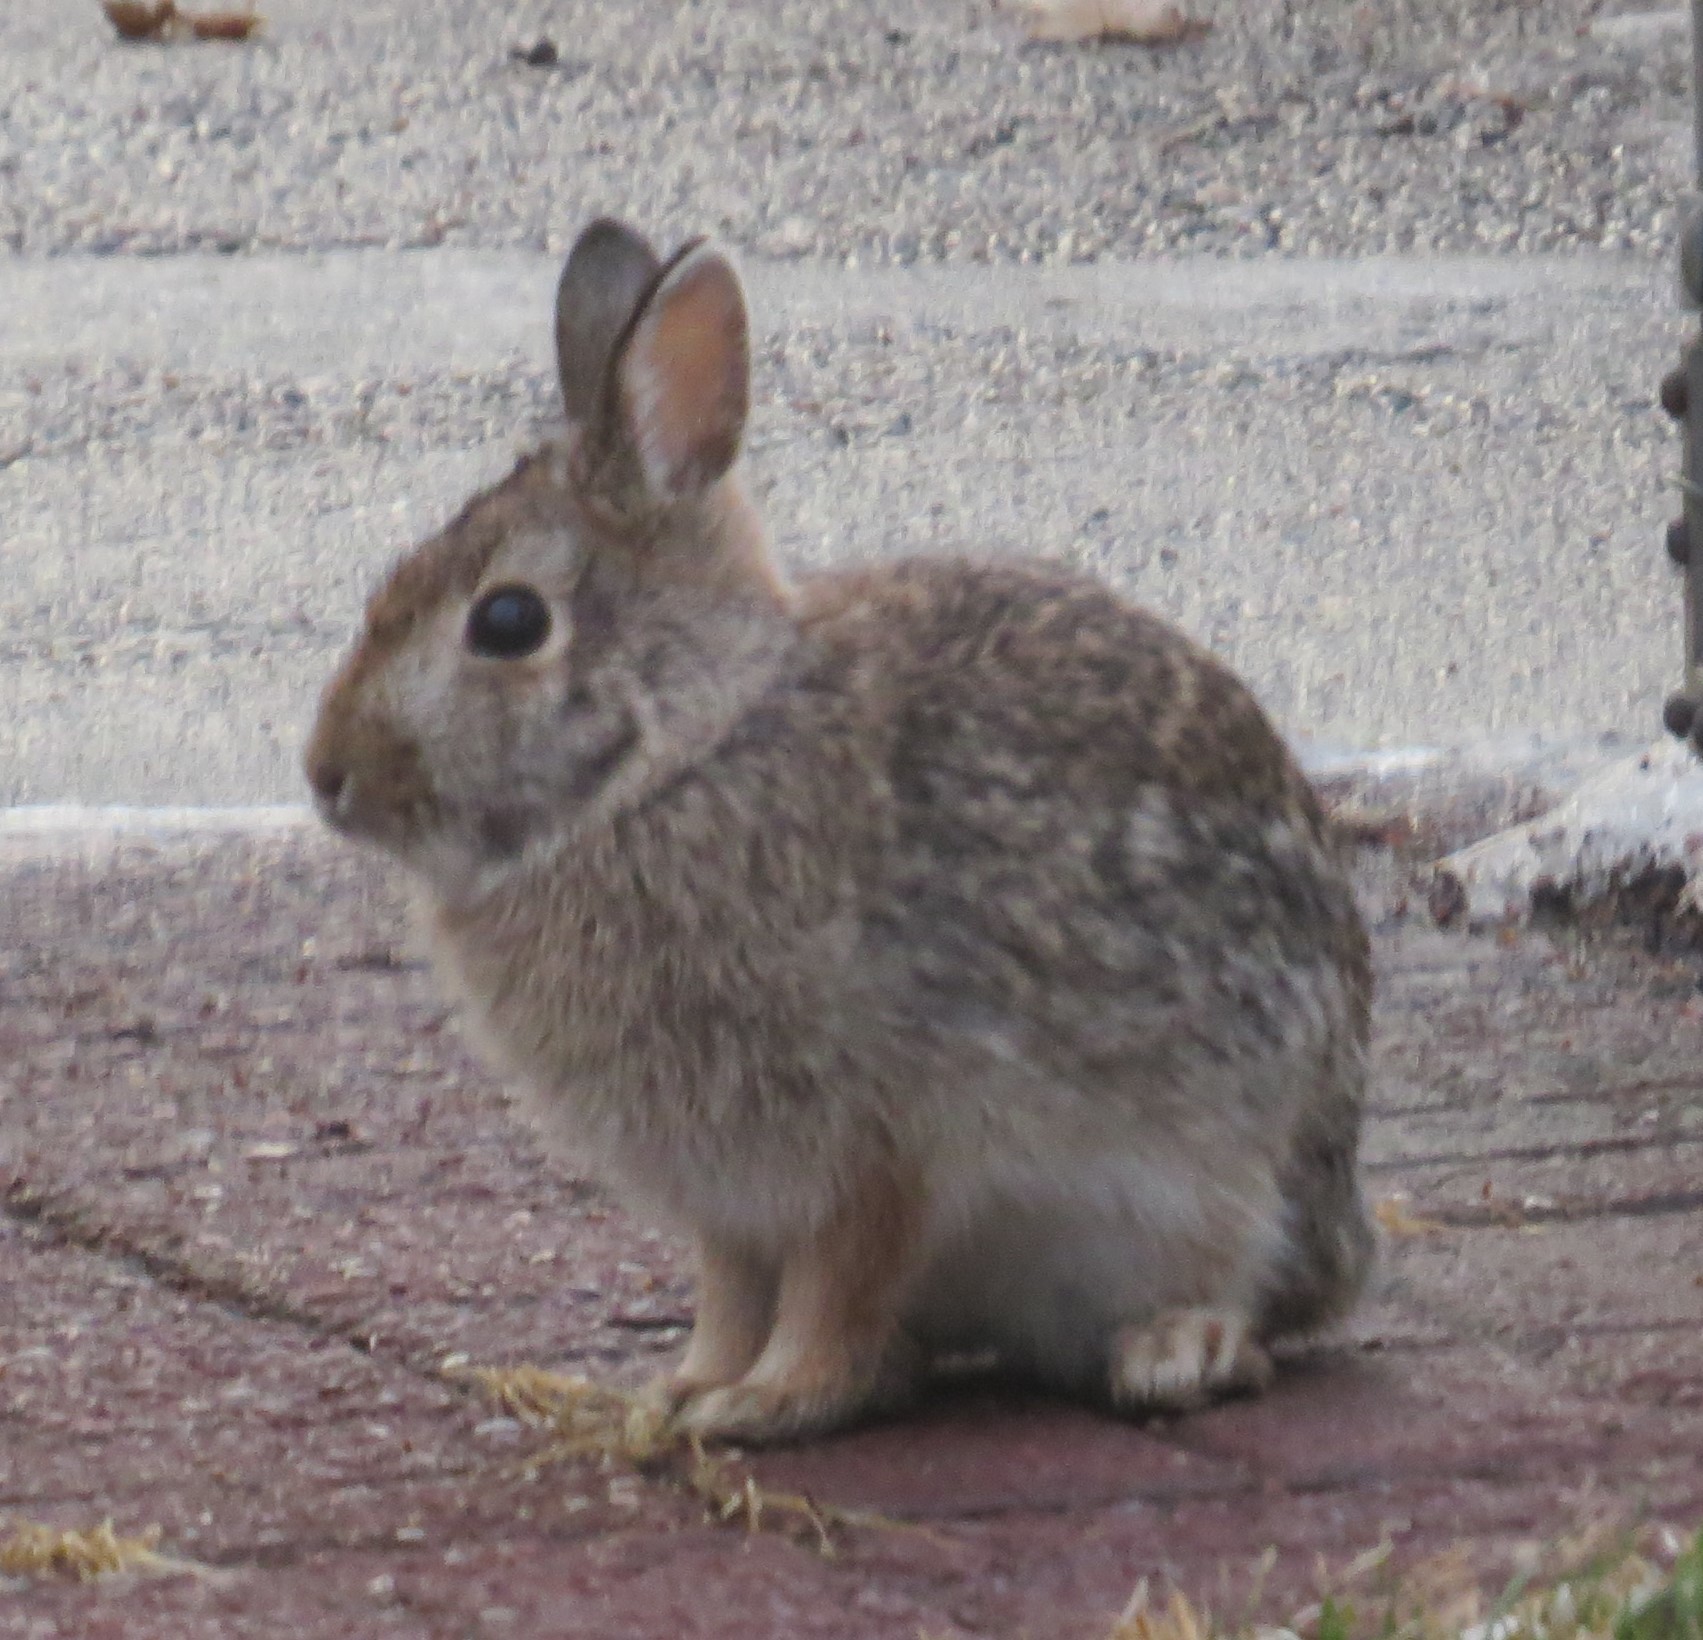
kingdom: Animalia
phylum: Chordata
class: Mammalia
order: Lagomorpha
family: Leporidae
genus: Sylvilagus
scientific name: Sylvilagus floridanus
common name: Eastern cottontail
